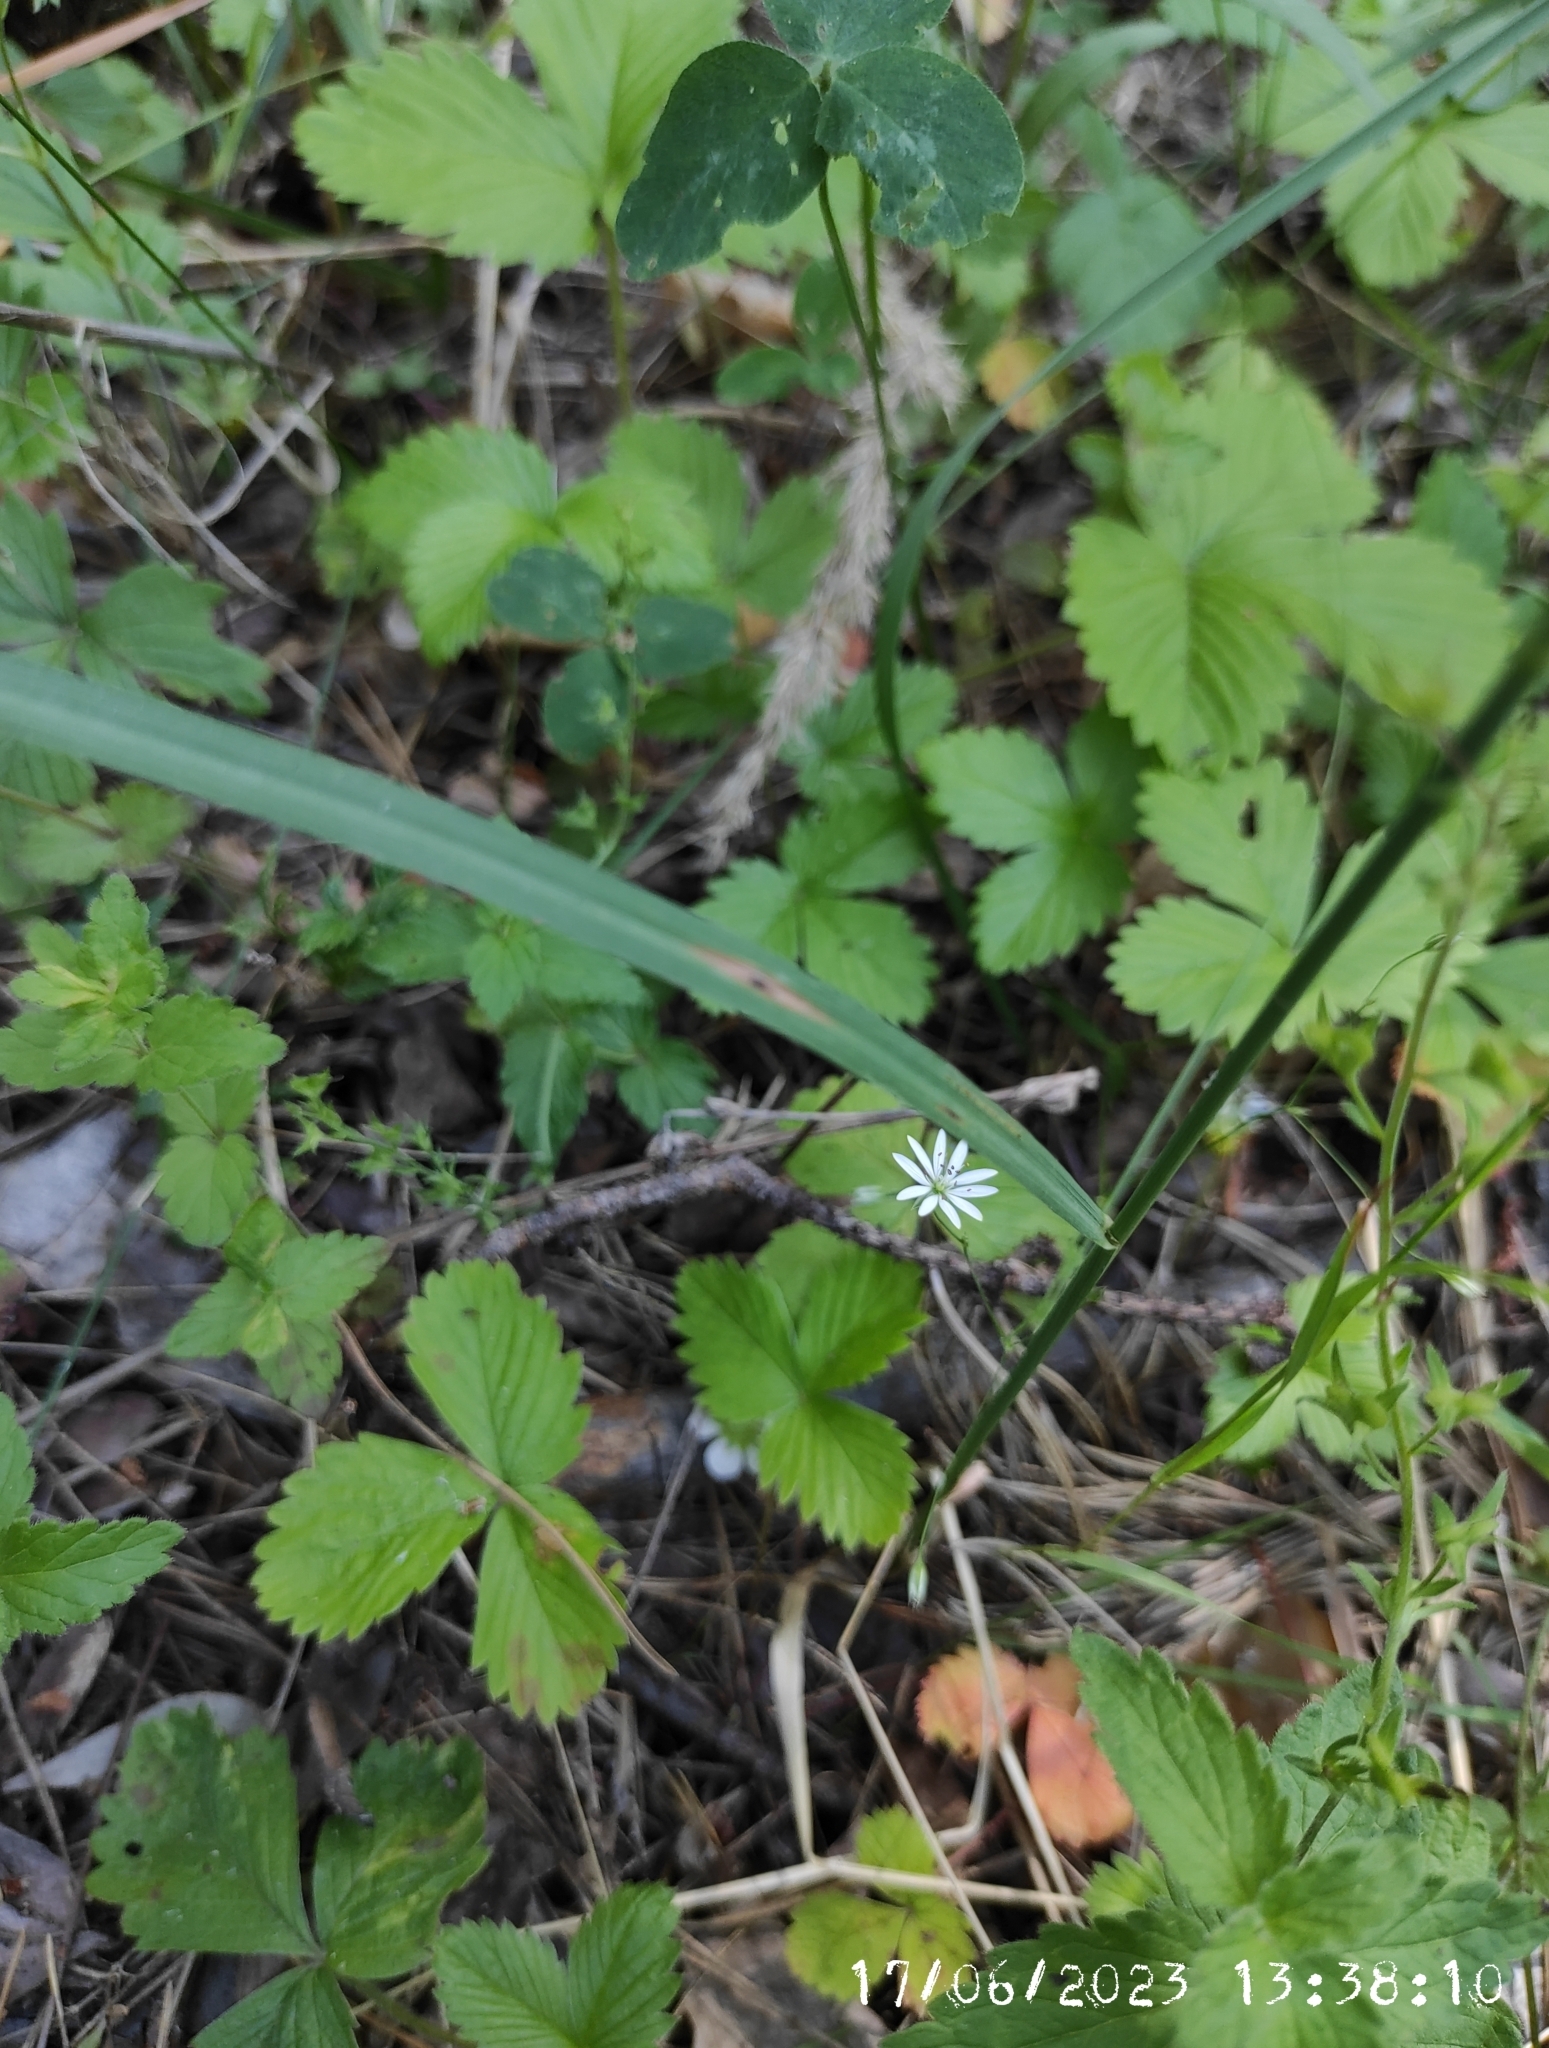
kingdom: Plantae
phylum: Tracheophyta
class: Magnoliopsida
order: Caryophyllales
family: Caryophyllaceae
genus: Stellaria
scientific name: Stellaria graminea
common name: Grass-like starwort
